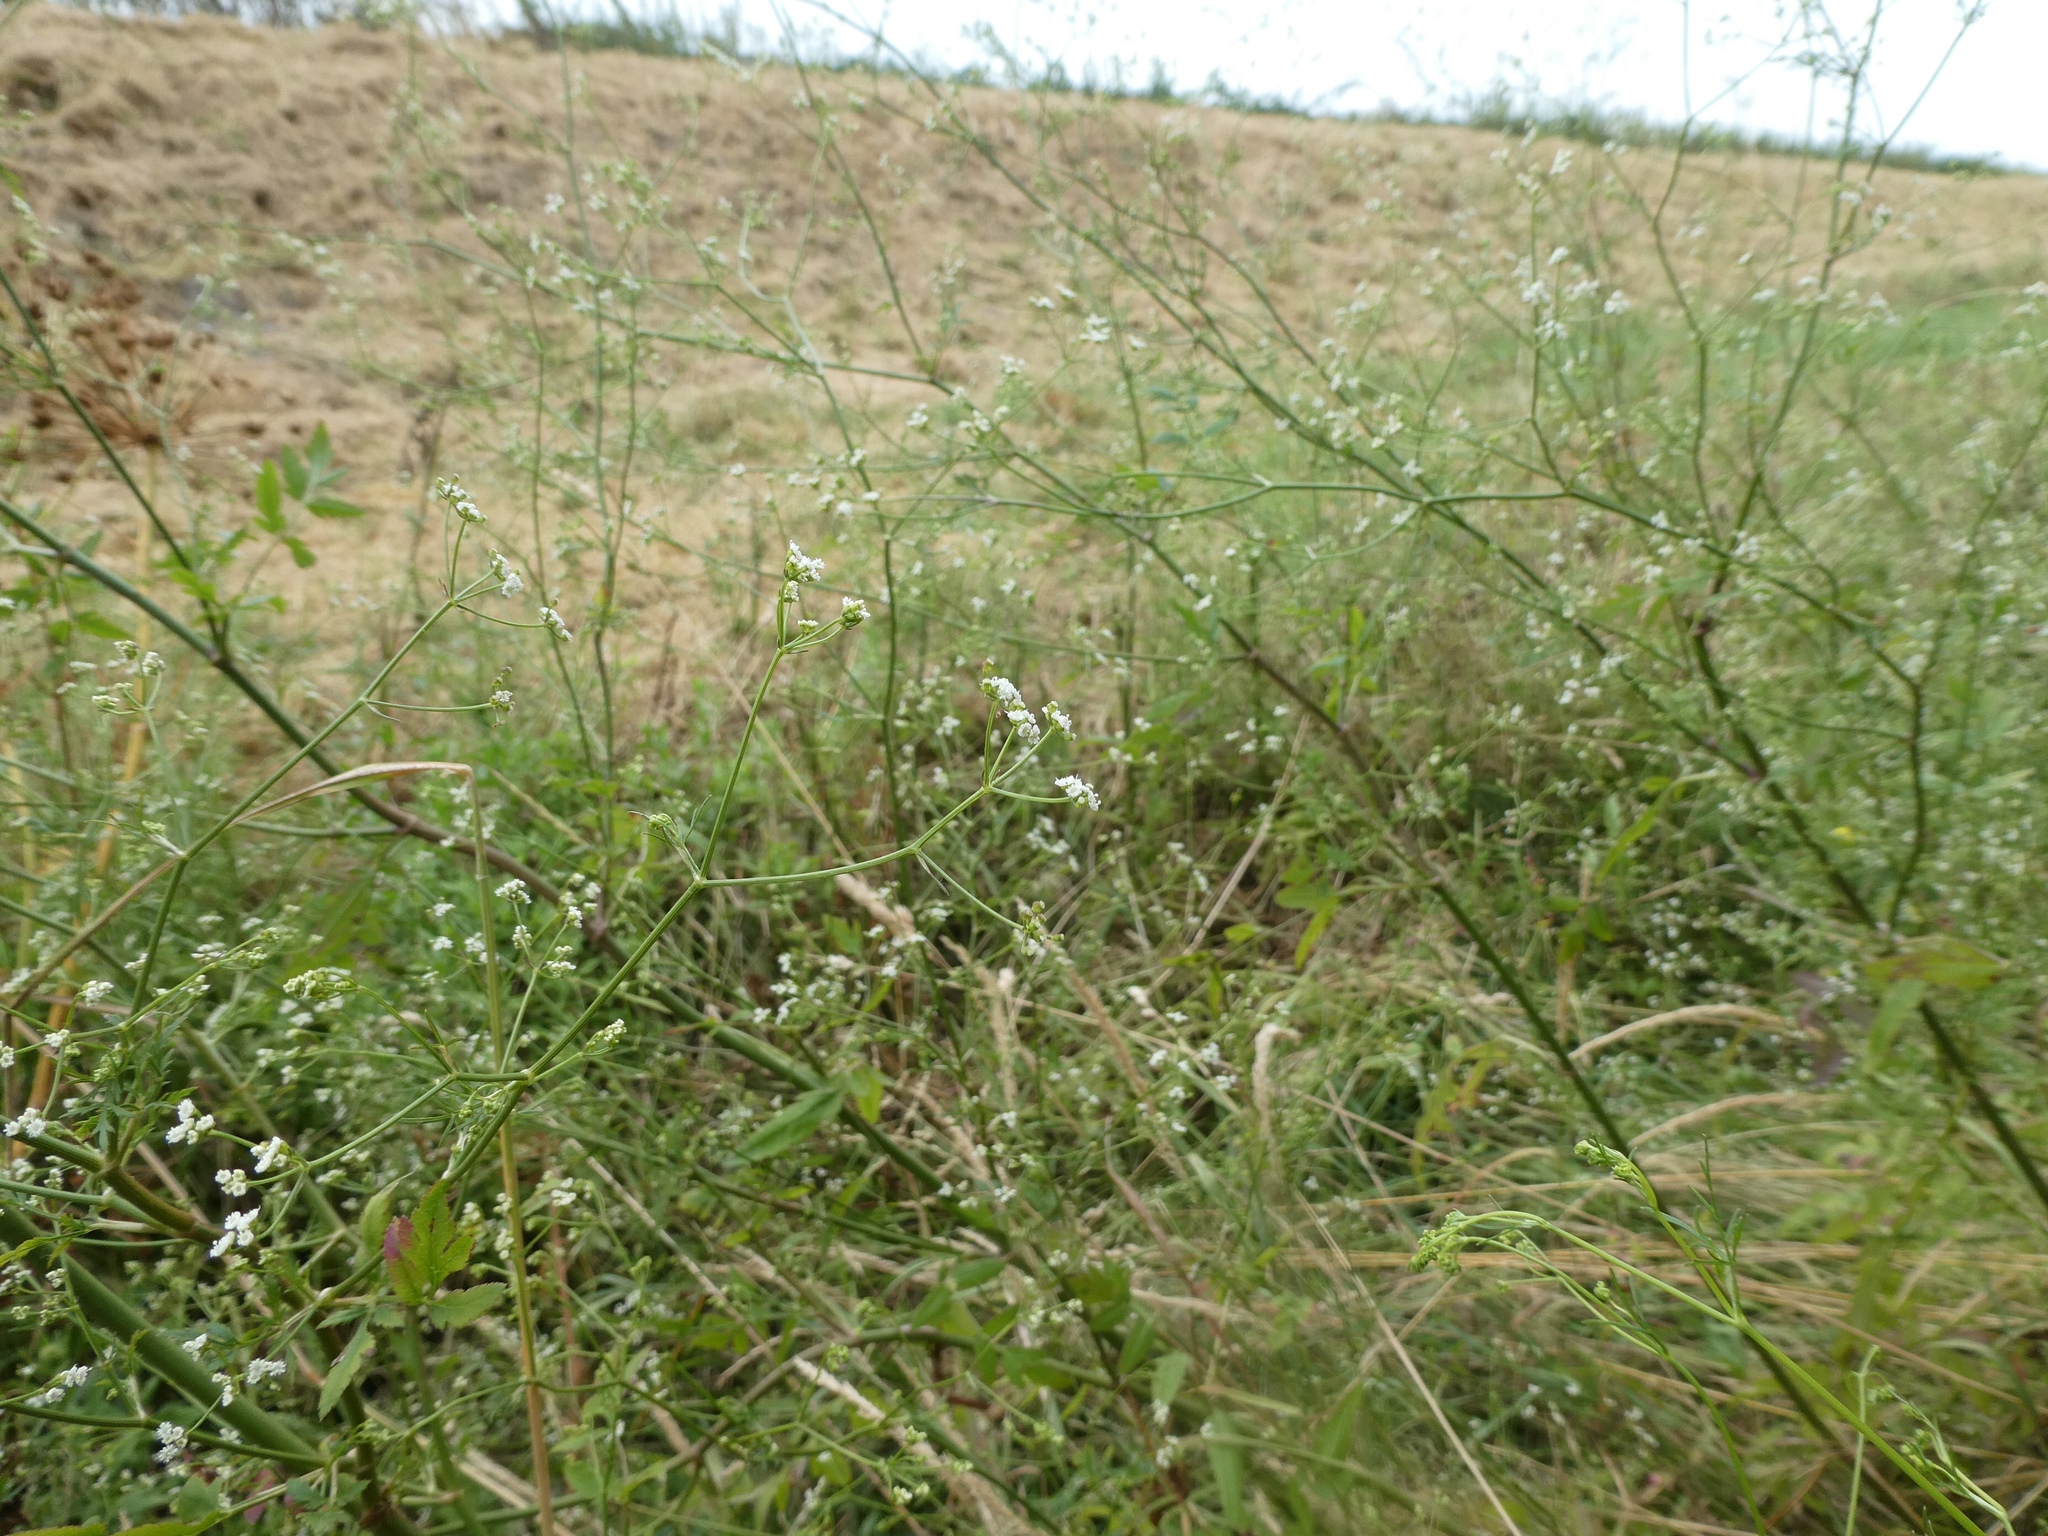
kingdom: Plantae
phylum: Tracheophyta
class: Magnoliopsida
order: Apiales
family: Apiaceae
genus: Sison
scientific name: Sison amomum
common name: Stone-parsley
